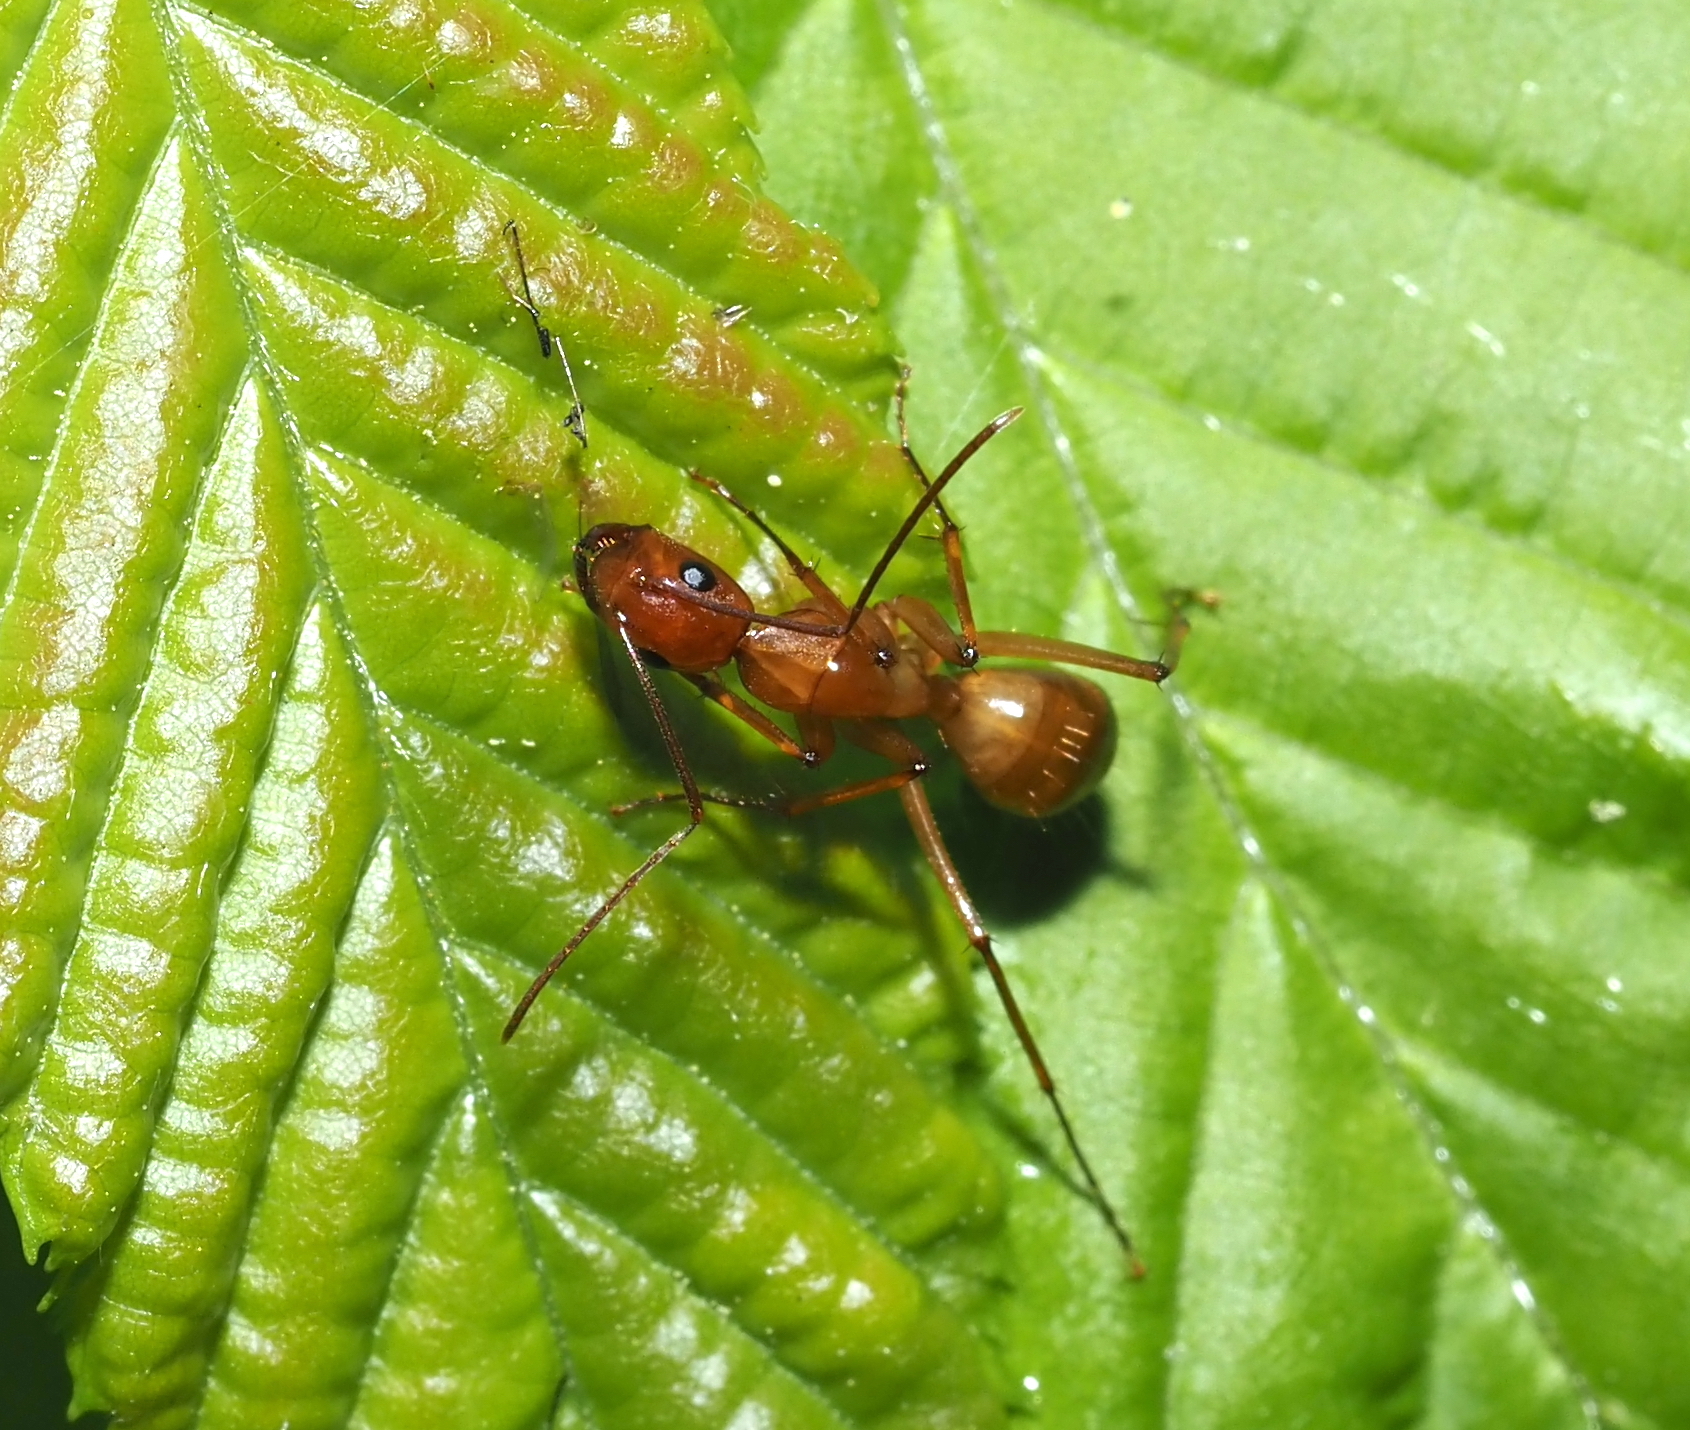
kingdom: Animalia
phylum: Arthropoda
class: Insecta
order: Hymenoptera
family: Formicidae
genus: Camponotus
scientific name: Camponotus castaneus
